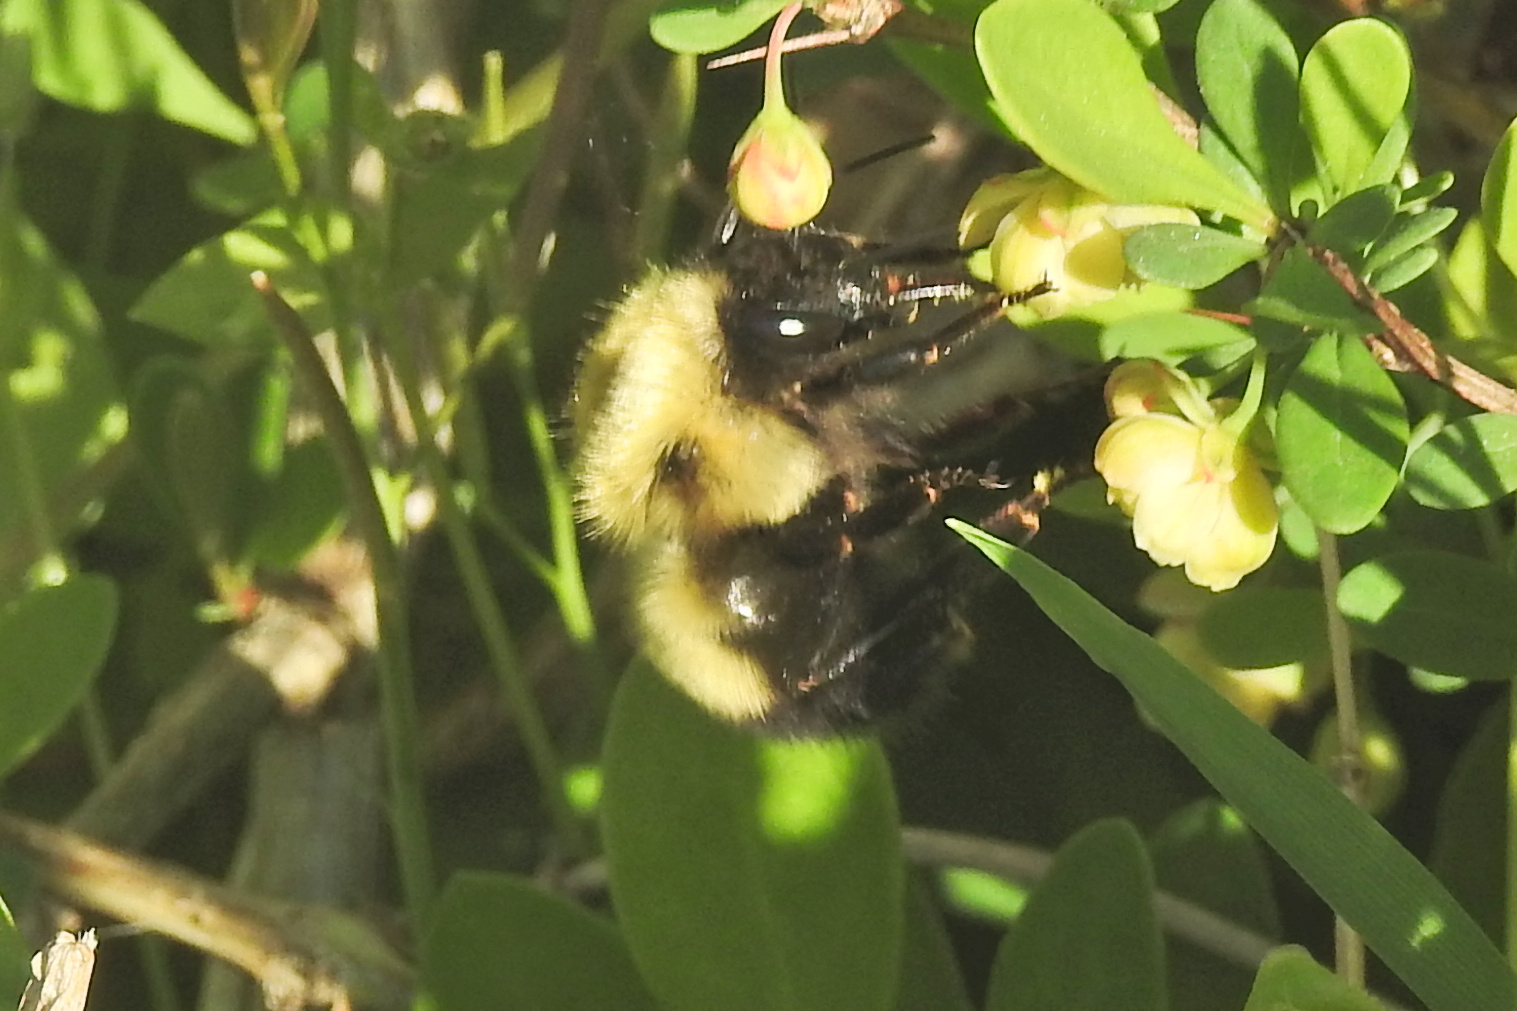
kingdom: Animalia
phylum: Arthropoda
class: Insecta
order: Hymenoptera
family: Apidae
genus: Bombus
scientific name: Bombus bimaculatus
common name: Two-spotted bumble bee
